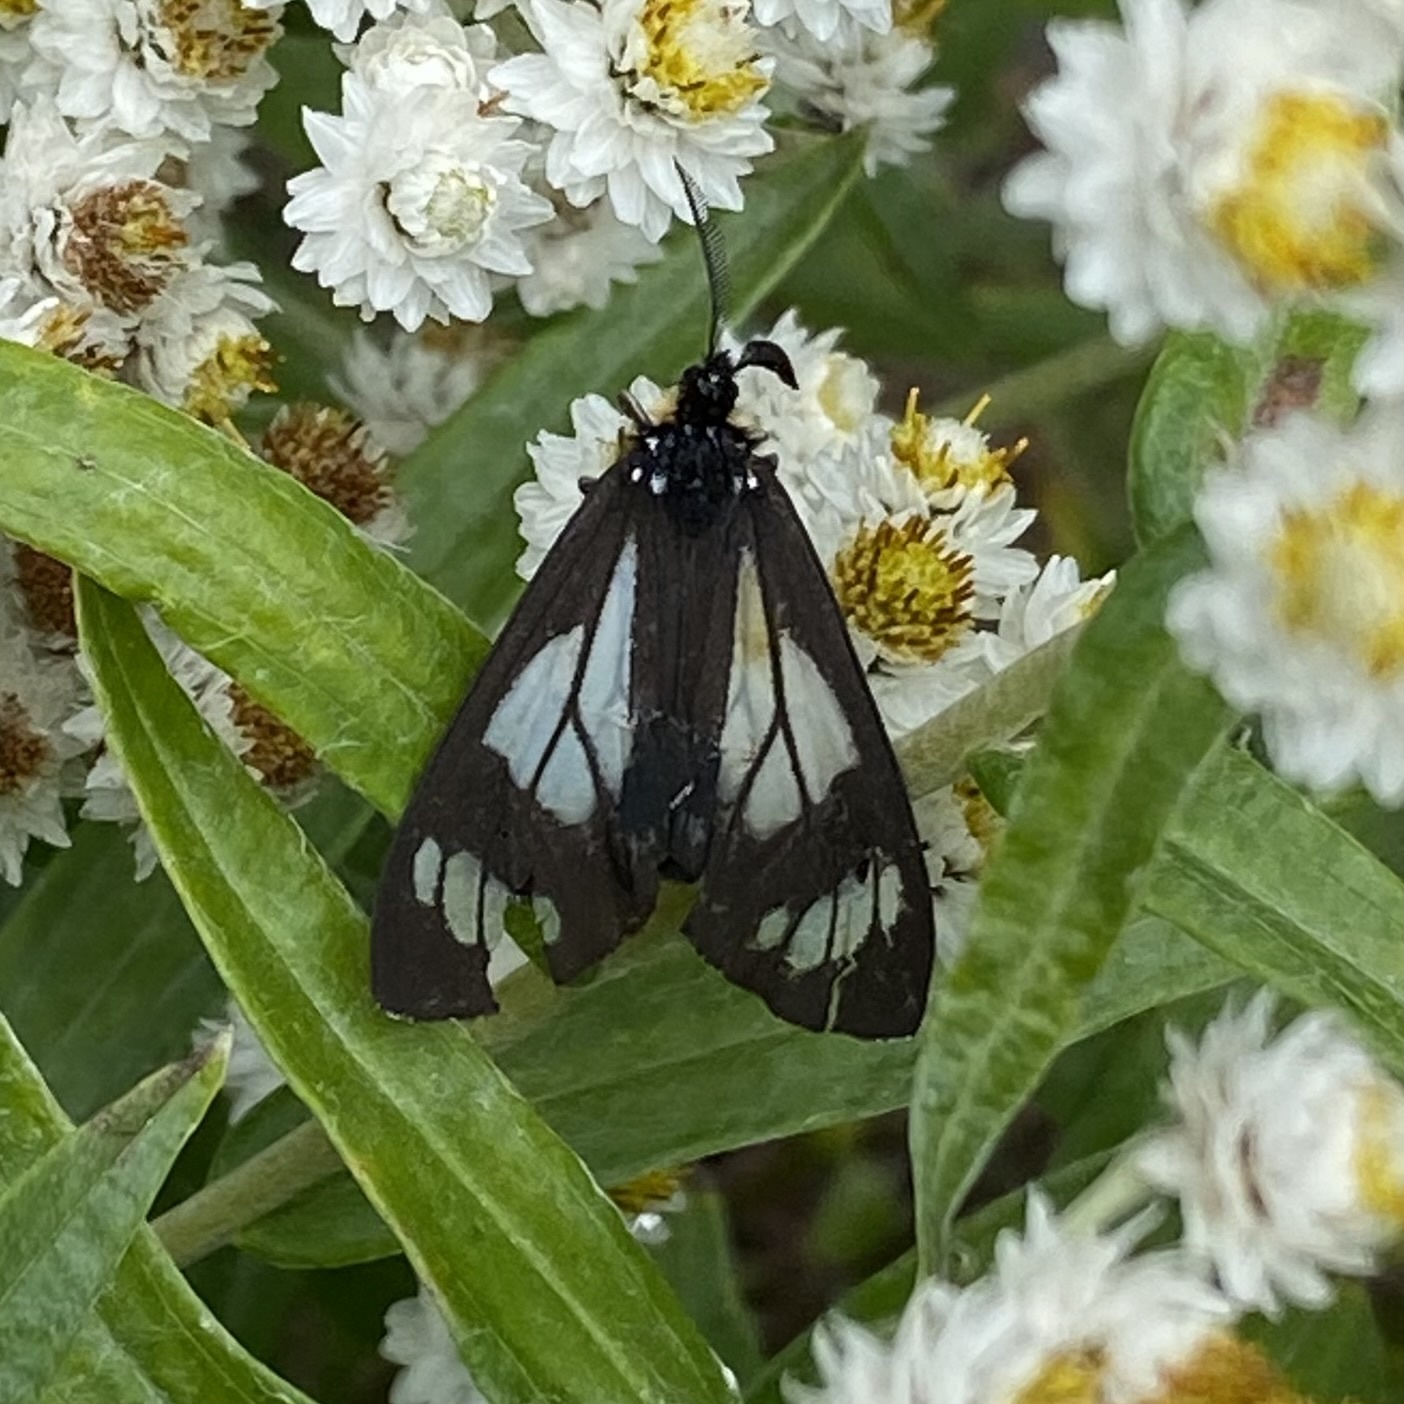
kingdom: Animalia
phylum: Arthropoda
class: Insecta
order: Lepidoptera
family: Erebidae
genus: Gnophaela
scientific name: Gnophaela vermiculata
